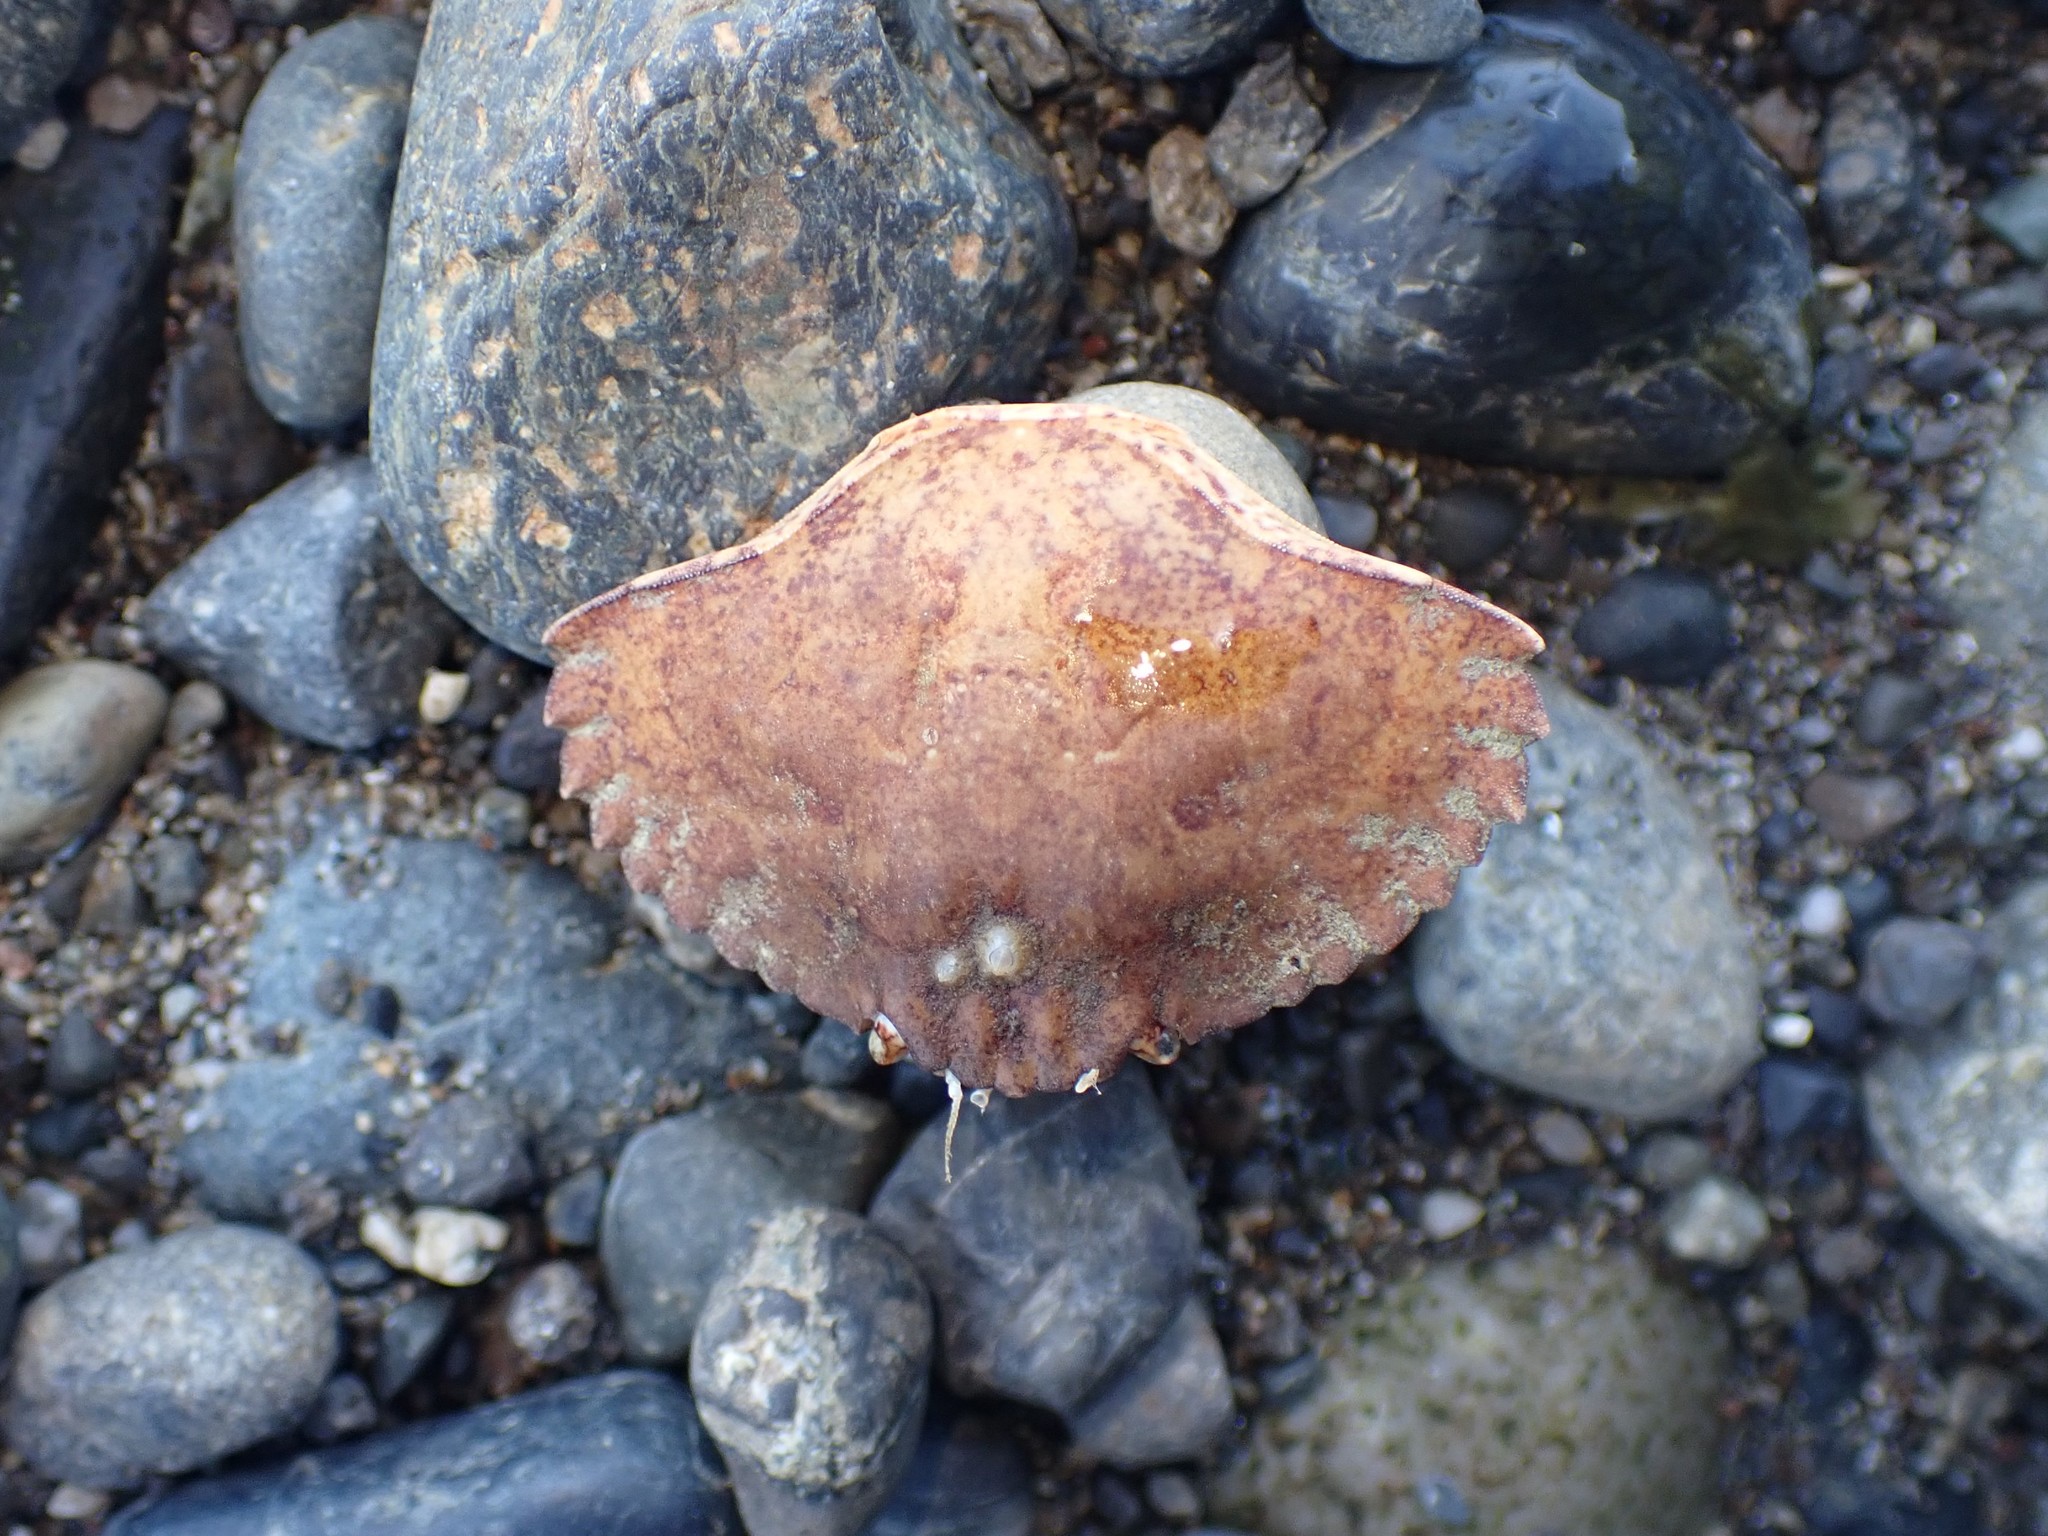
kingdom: Animalia
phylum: Arthropoda
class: Malacostraca
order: Decapoda
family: Cancridae
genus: Cancer
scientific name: Cancer productus
